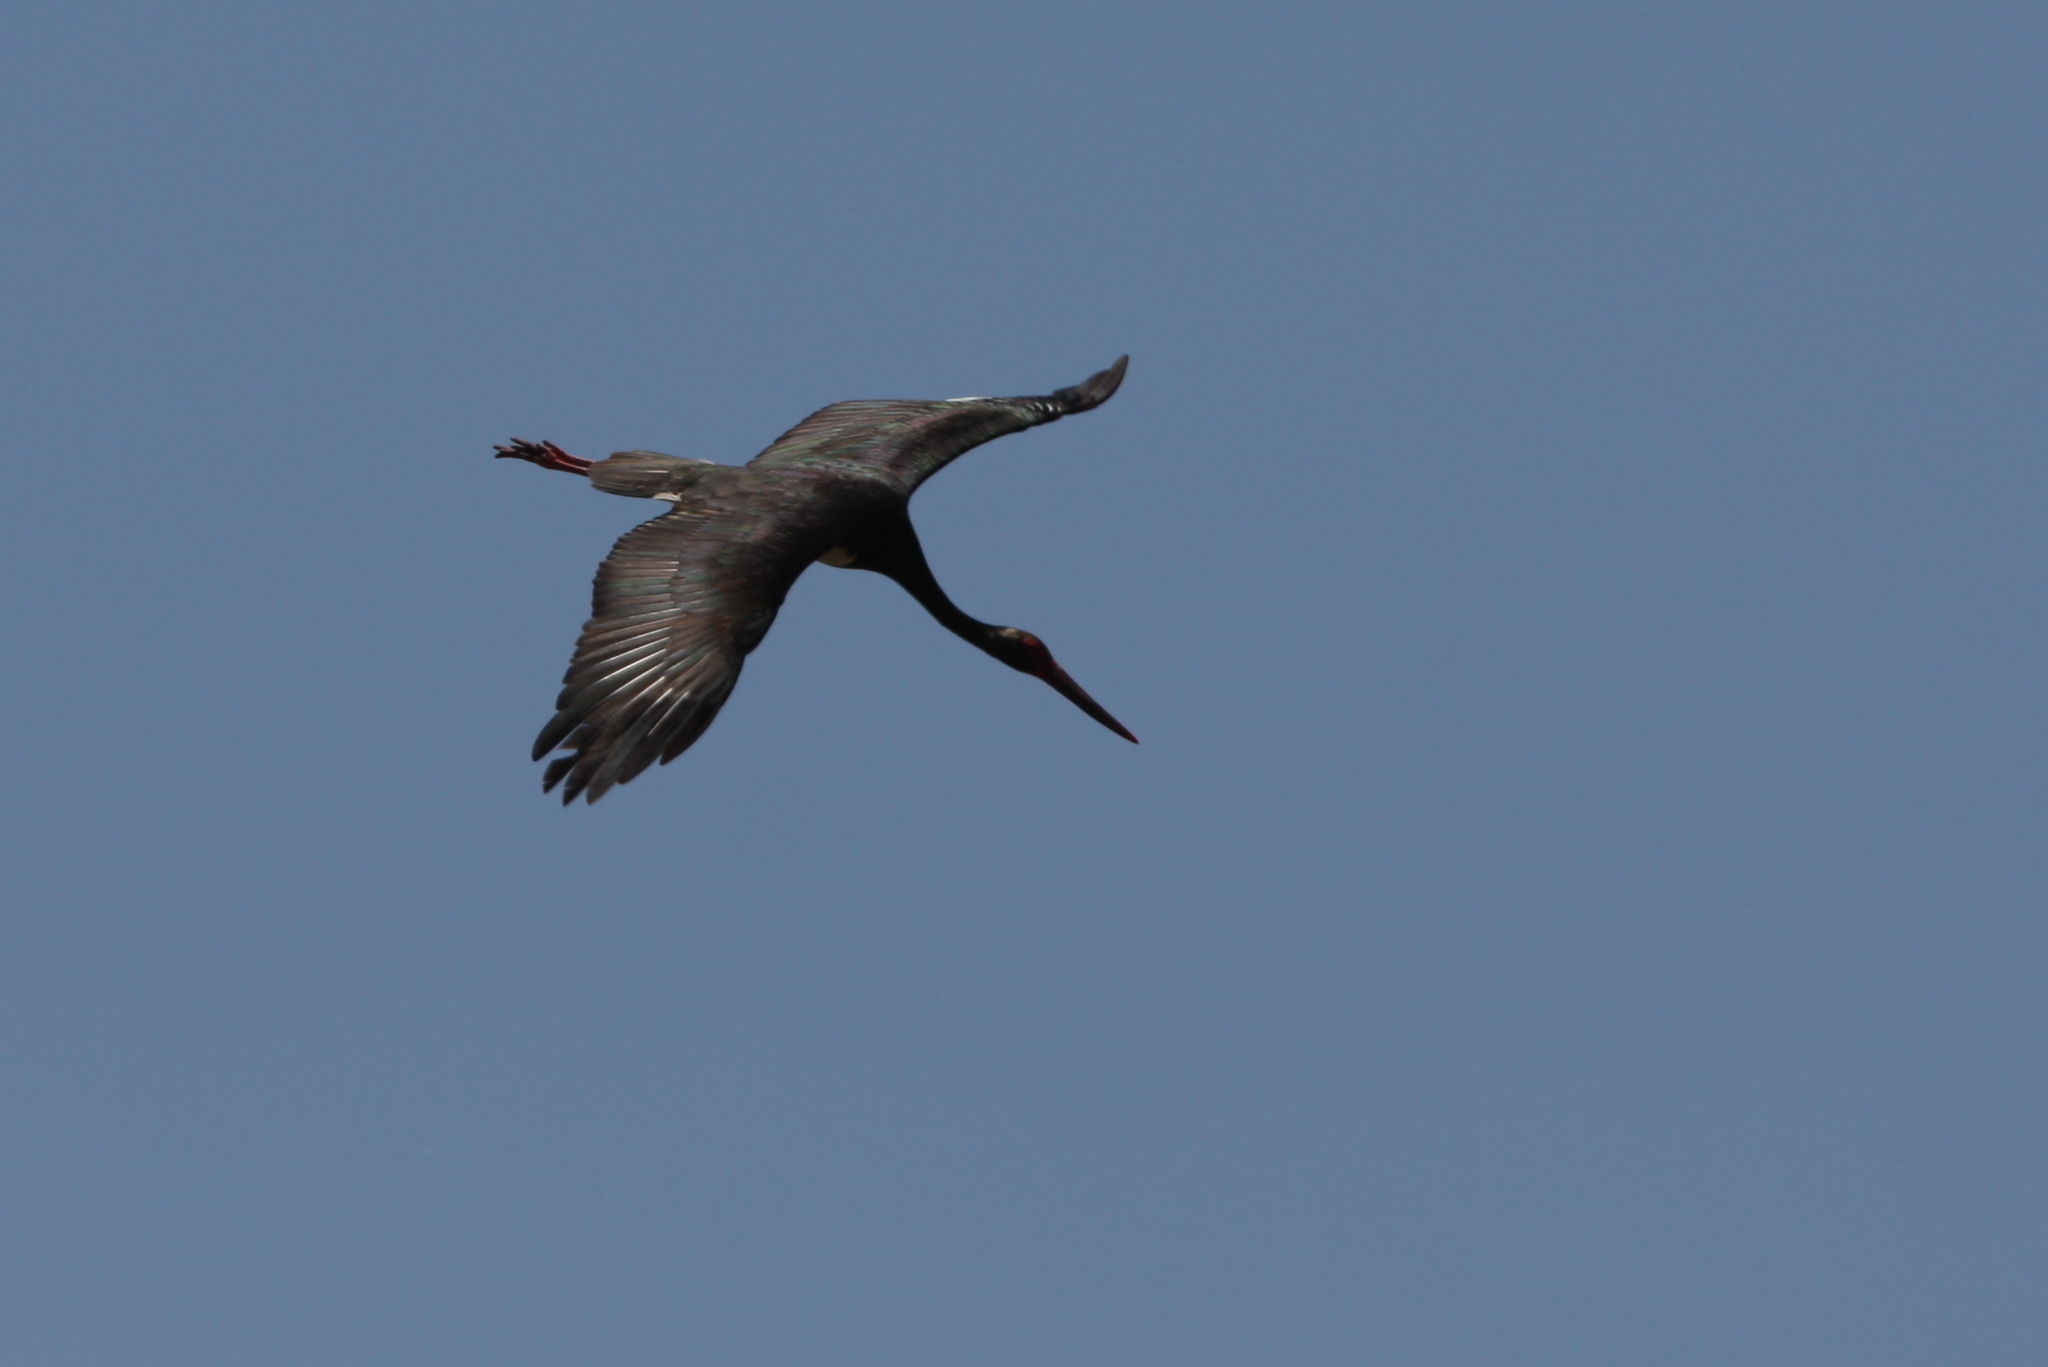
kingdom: Animalia
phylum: Chordata
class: Aves
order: Ciconiiformes
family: Ciconiidae
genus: Ciconia
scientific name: Ciconia nigra
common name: Black stork
